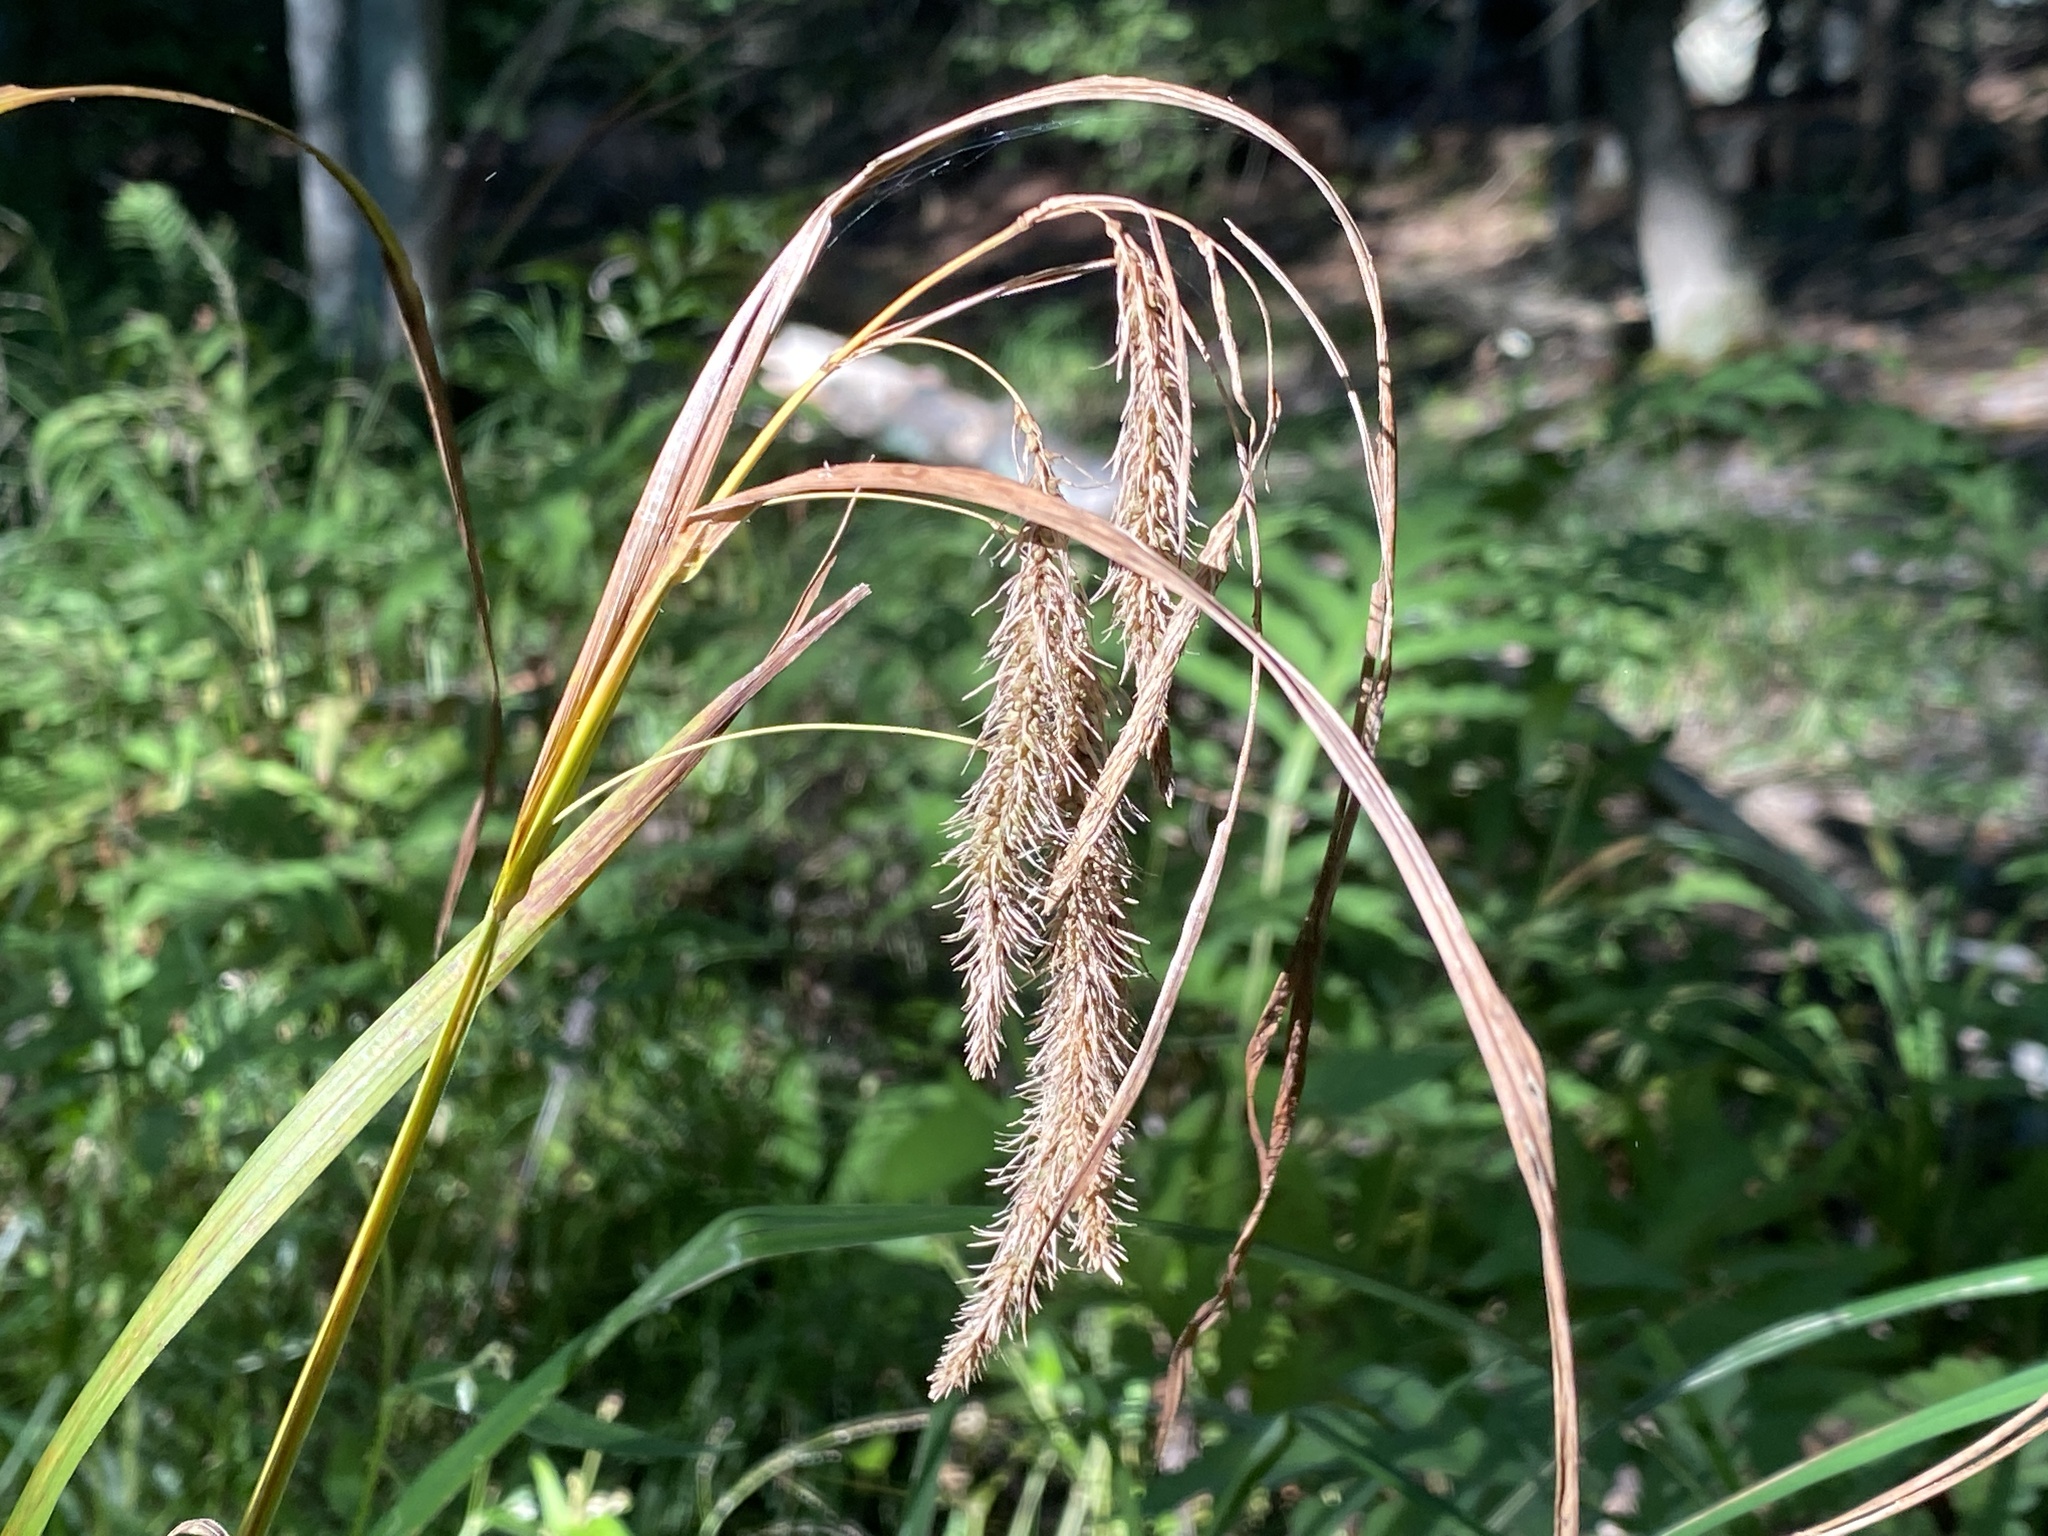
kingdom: Plantae
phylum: Tracheophyta
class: Liliopsida
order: Poales
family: Cyperaceae
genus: Carex
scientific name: Carex crinita
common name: Fringed sedge
